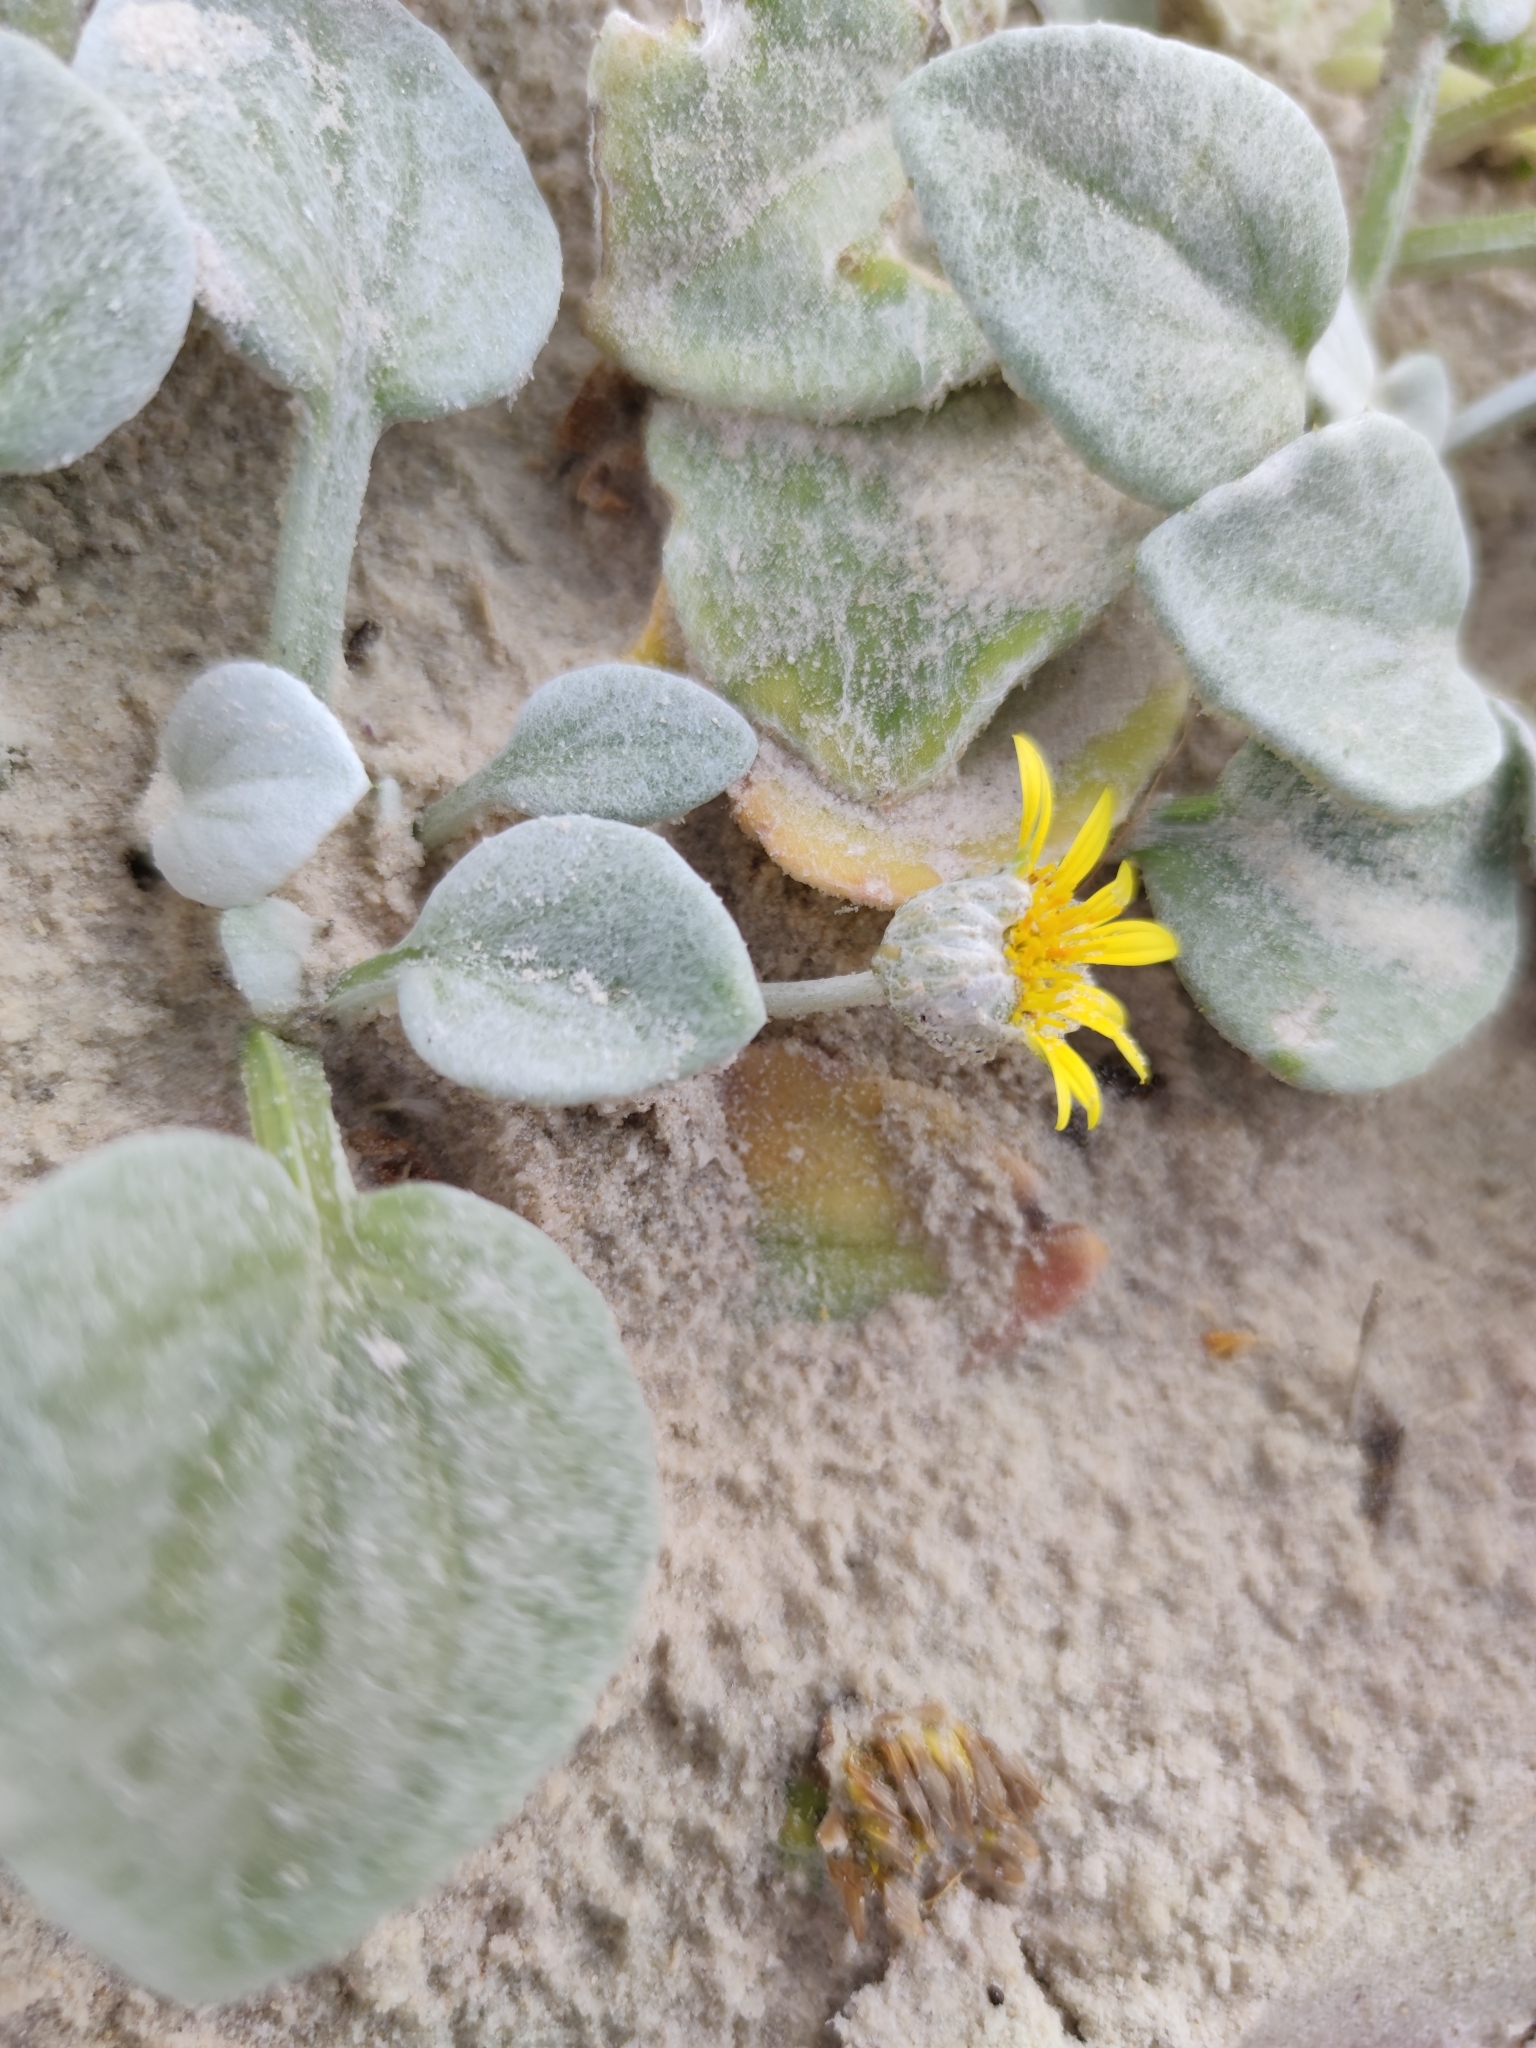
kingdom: Plantae
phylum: Tracheophyta
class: Magnoliopsida
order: Asterales
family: Asteraceae
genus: Arctotheca
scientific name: Arctotheca populifolia
